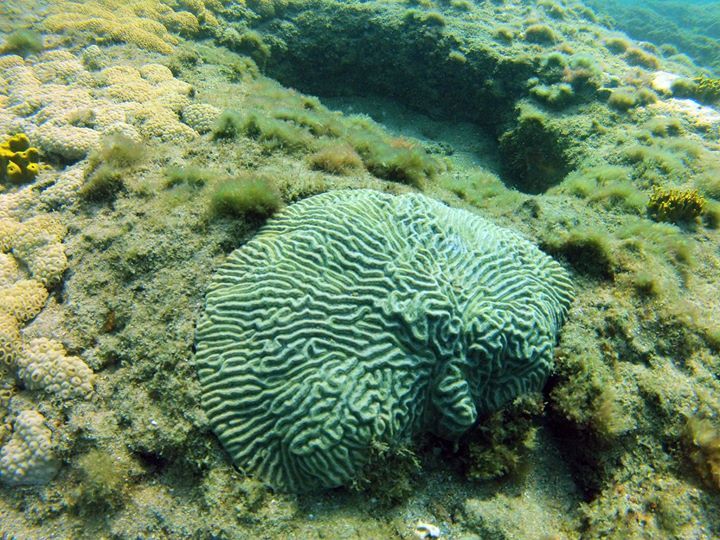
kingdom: Animalia
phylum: Cnidaria
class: Anthozoa
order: Scleractinia
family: Faviidae
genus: Pseudodiploria
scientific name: Pseudodiploria clivosa
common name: Knobby brain coral
